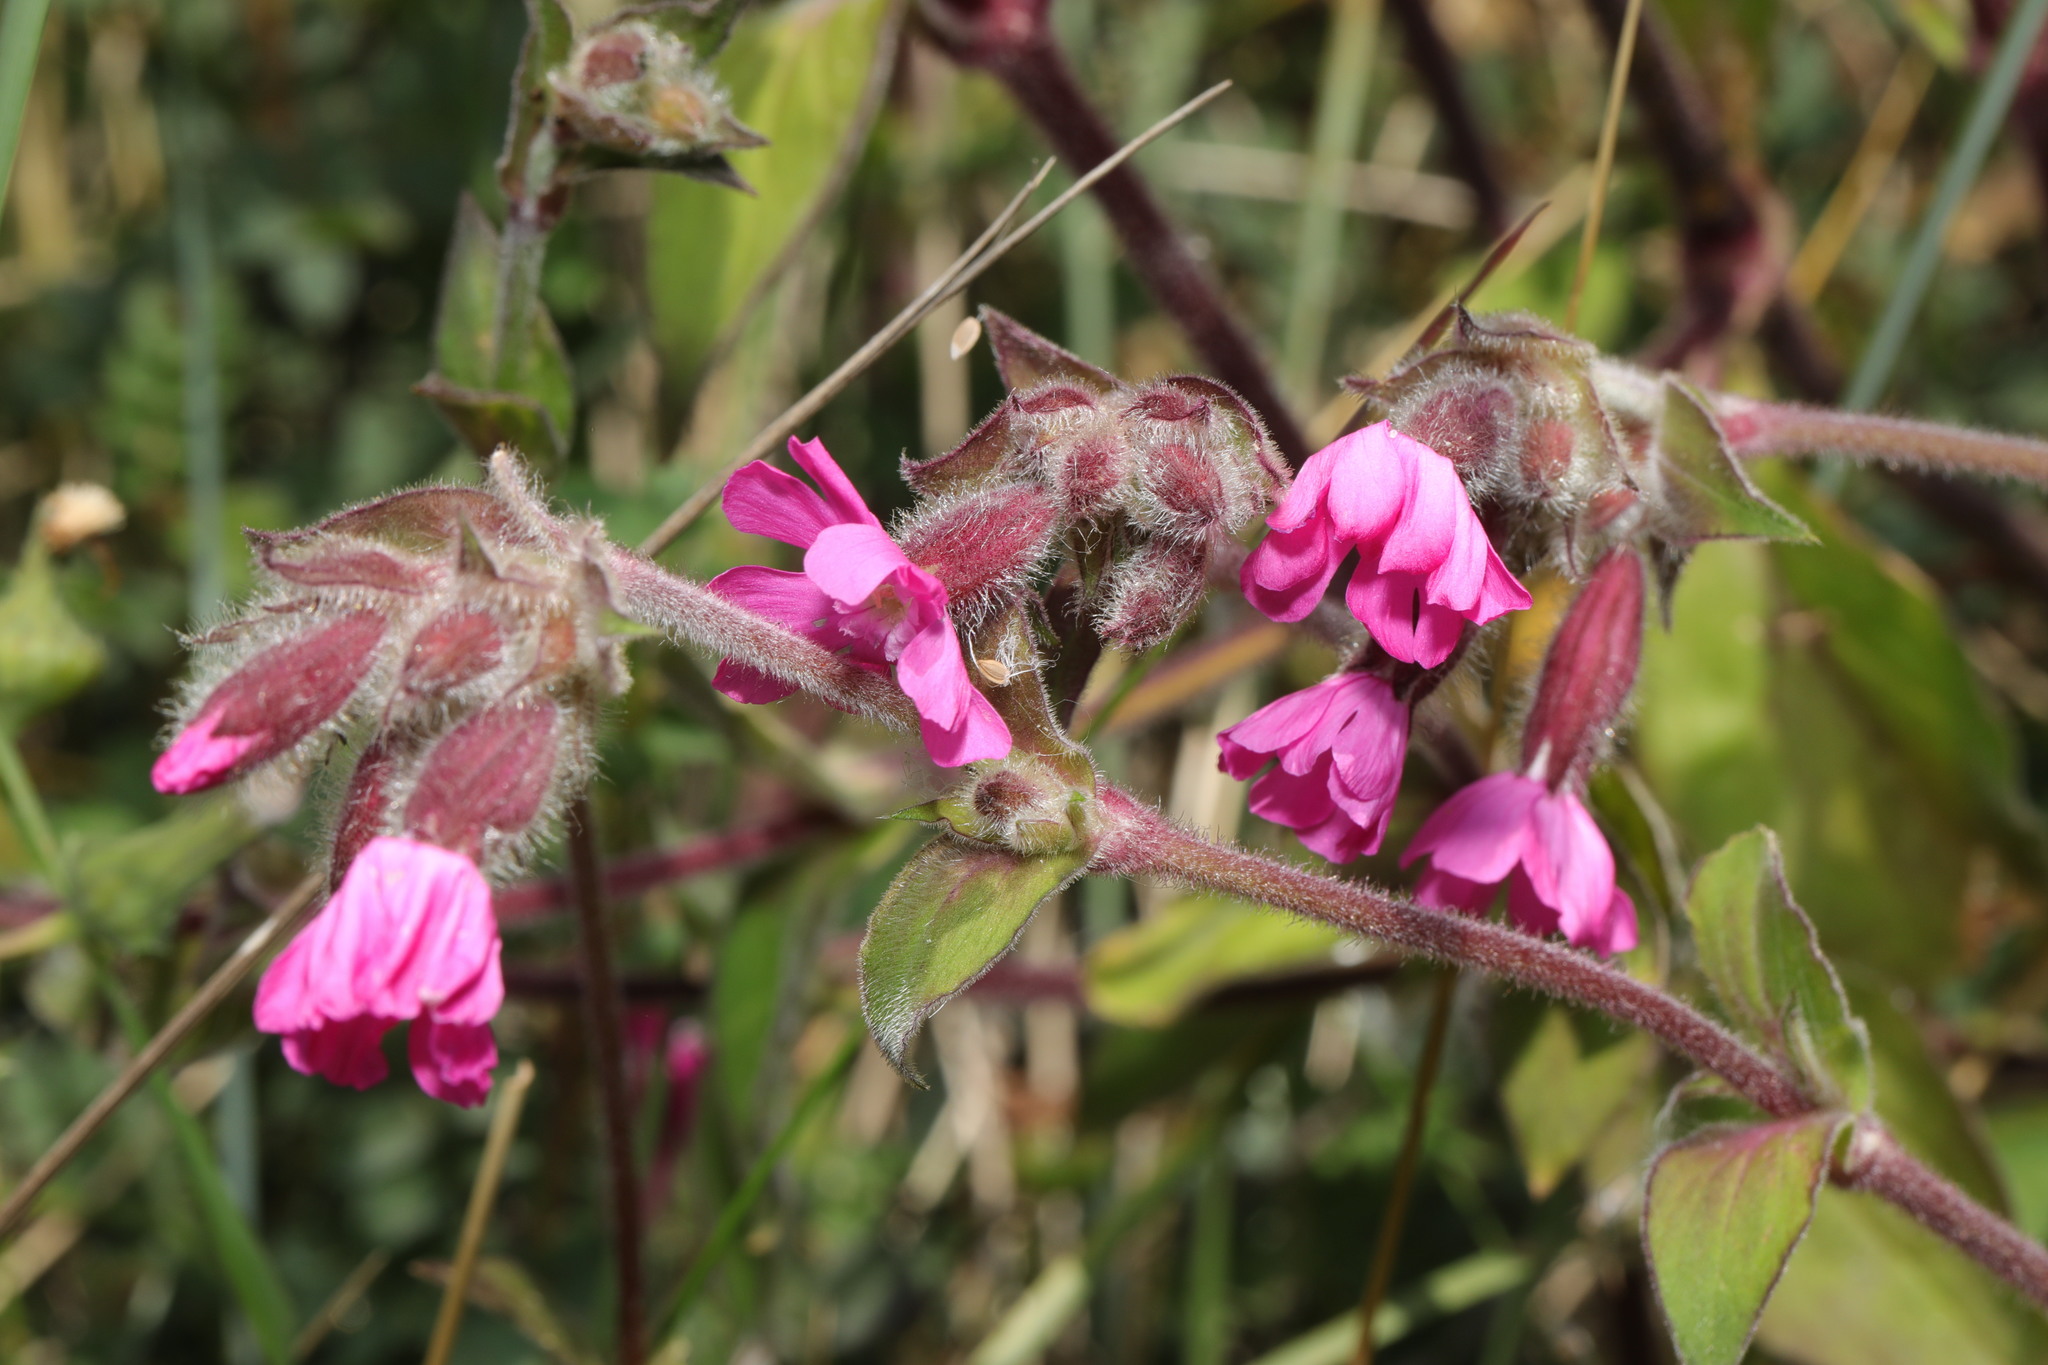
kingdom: Plantae
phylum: Tracheophyta
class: Magnoliopsida
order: Caryophyllales
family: Caryophyllaceae
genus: Silene
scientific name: Silene dioica
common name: Red campion
